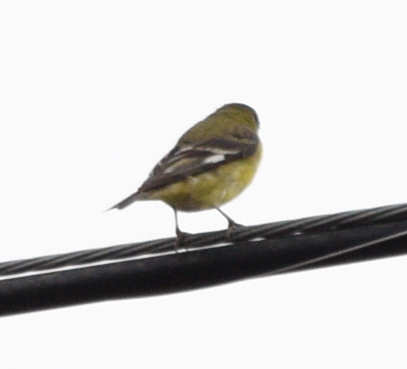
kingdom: Animalia
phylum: Chordata
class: Aves
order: Passeriformes
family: Fringillidae
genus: Spinus
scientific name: Spinus psaltria
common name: Lesser goldfinch
